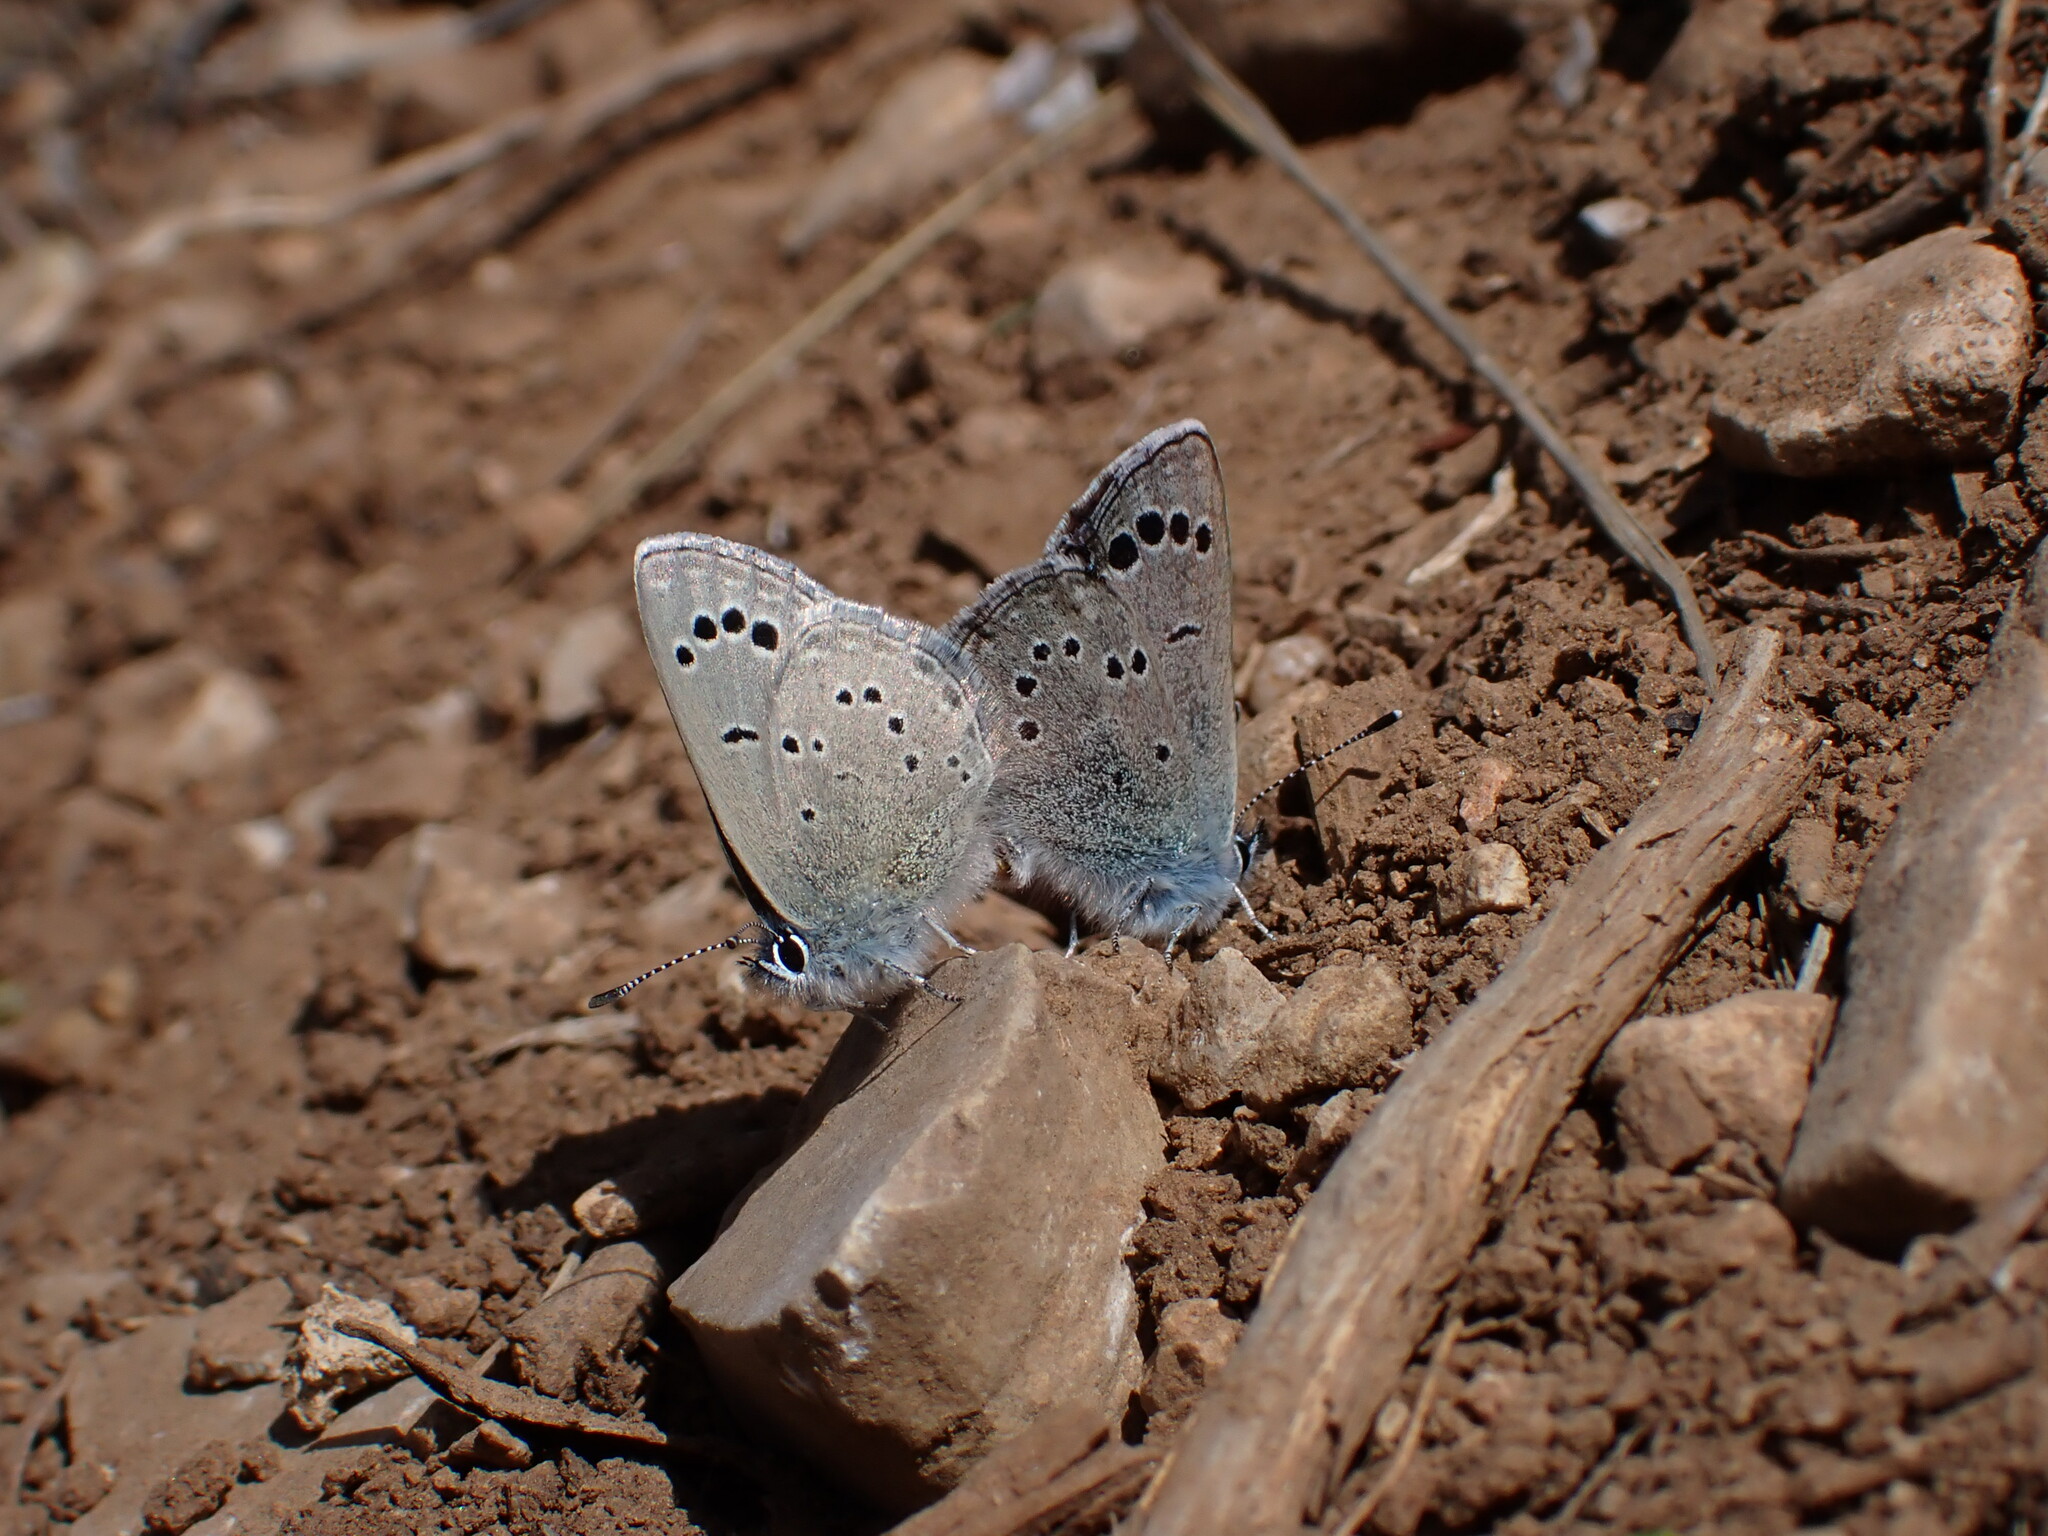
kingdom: Animalia
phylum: Arthropoda
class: Insecta
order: Lepidoptera
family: Lycaenidae
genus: Glaucopsyche
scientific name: Glaucopsyche melanops
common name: Black-eyed blue
